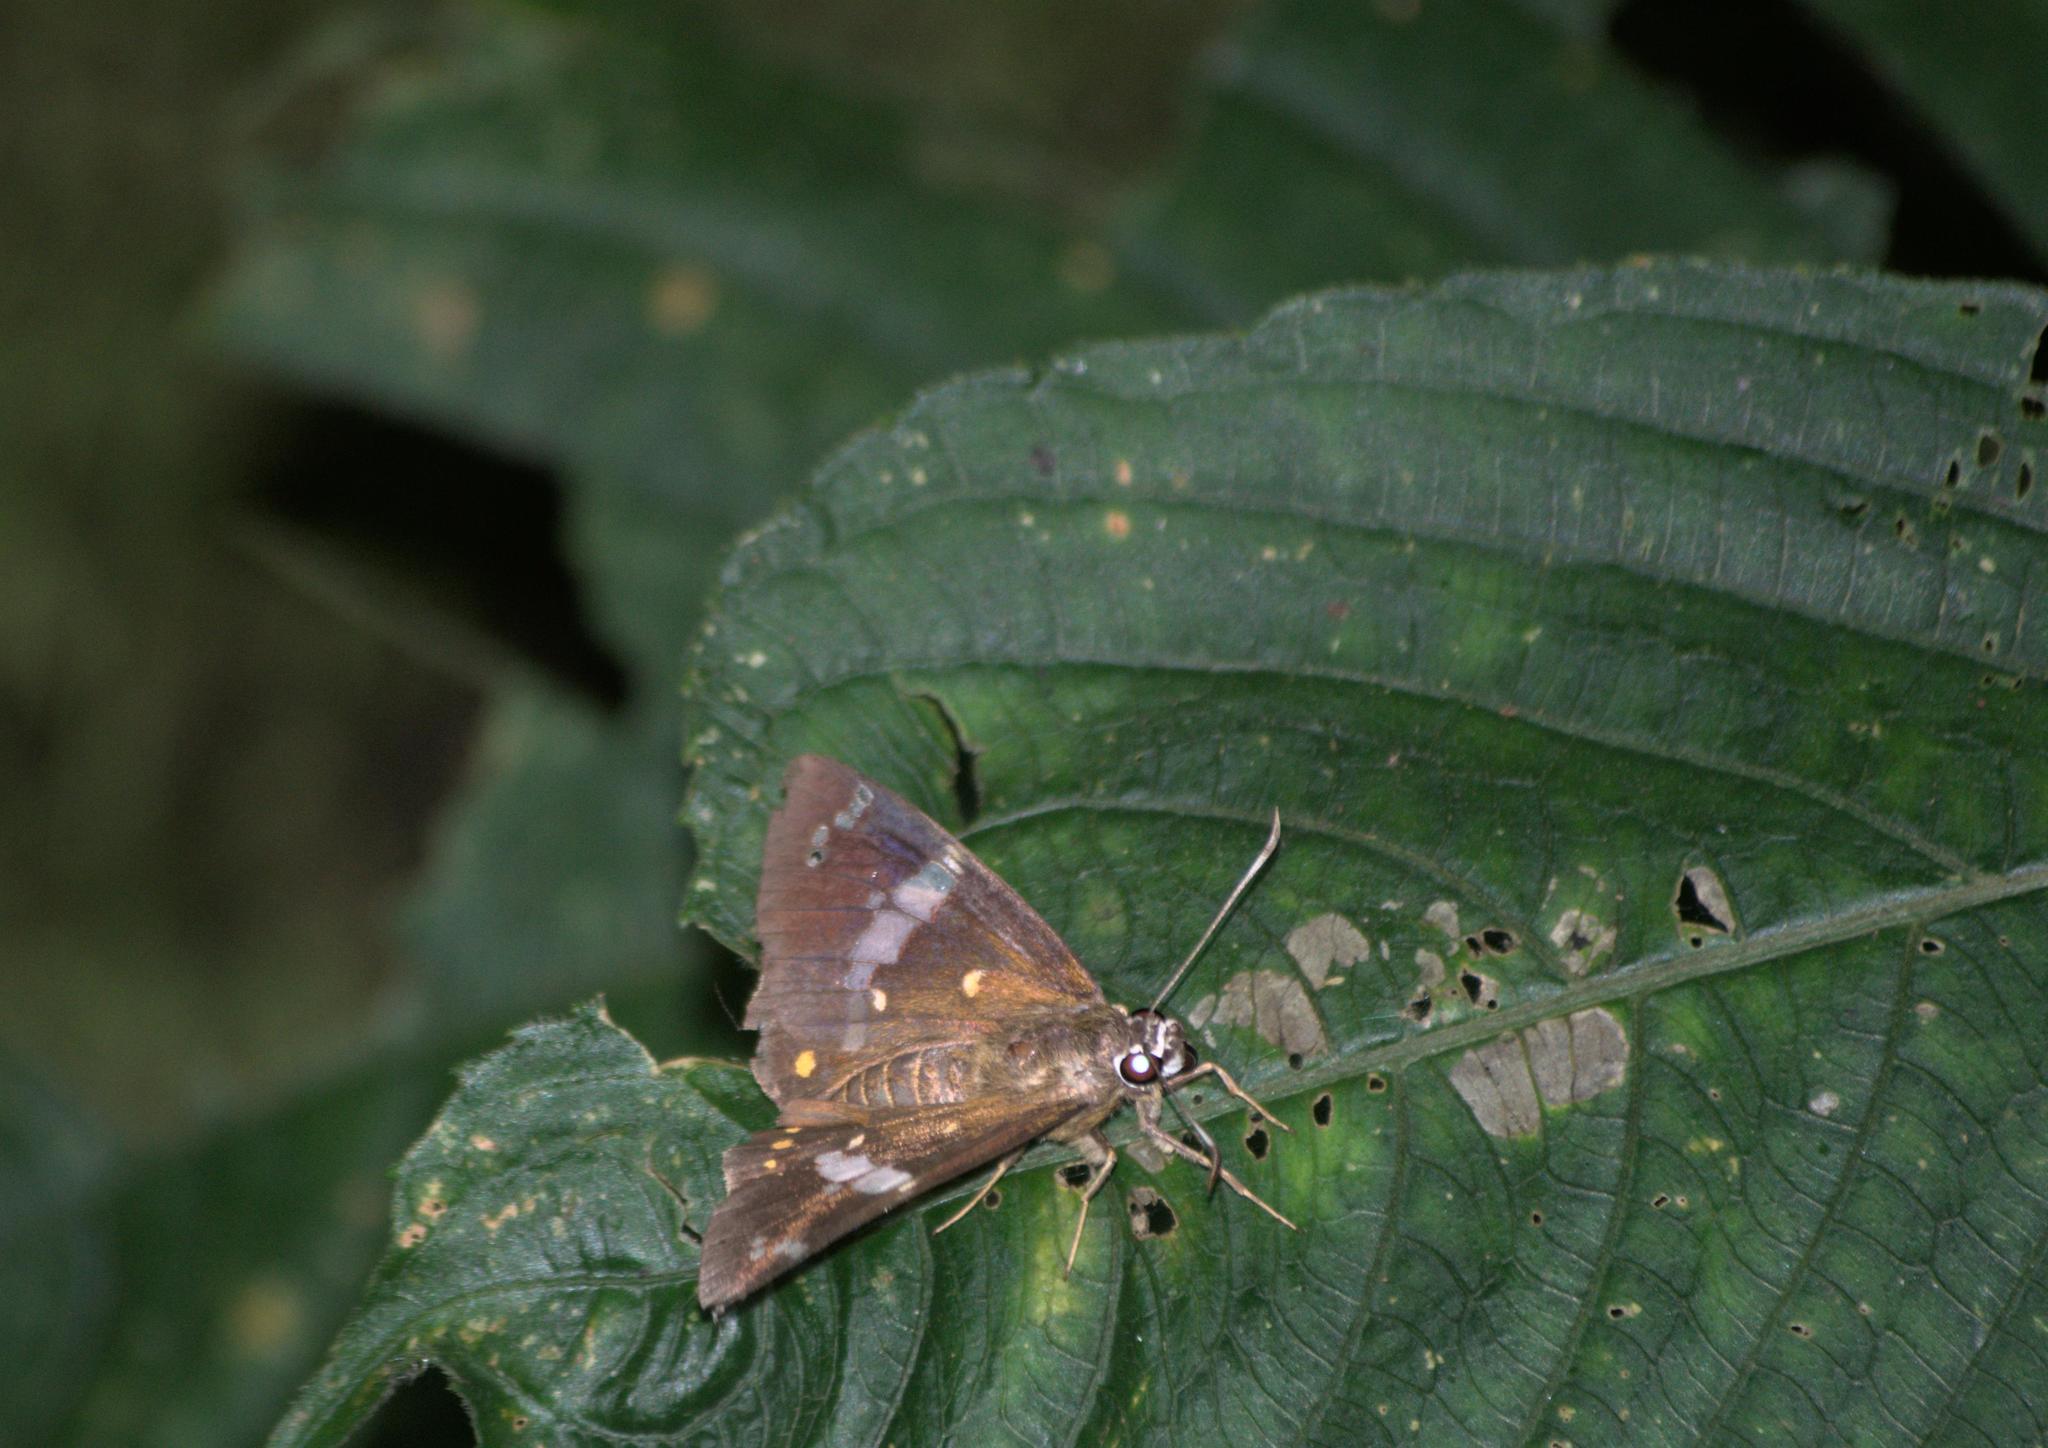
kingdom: Animalia
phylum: Arthropoda
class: Insecta
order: Lepidoptera
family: Hesperiidae
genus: Celaenorrhinus
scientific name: Celaenorrhinus pero
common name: Mussoorie pied flat
